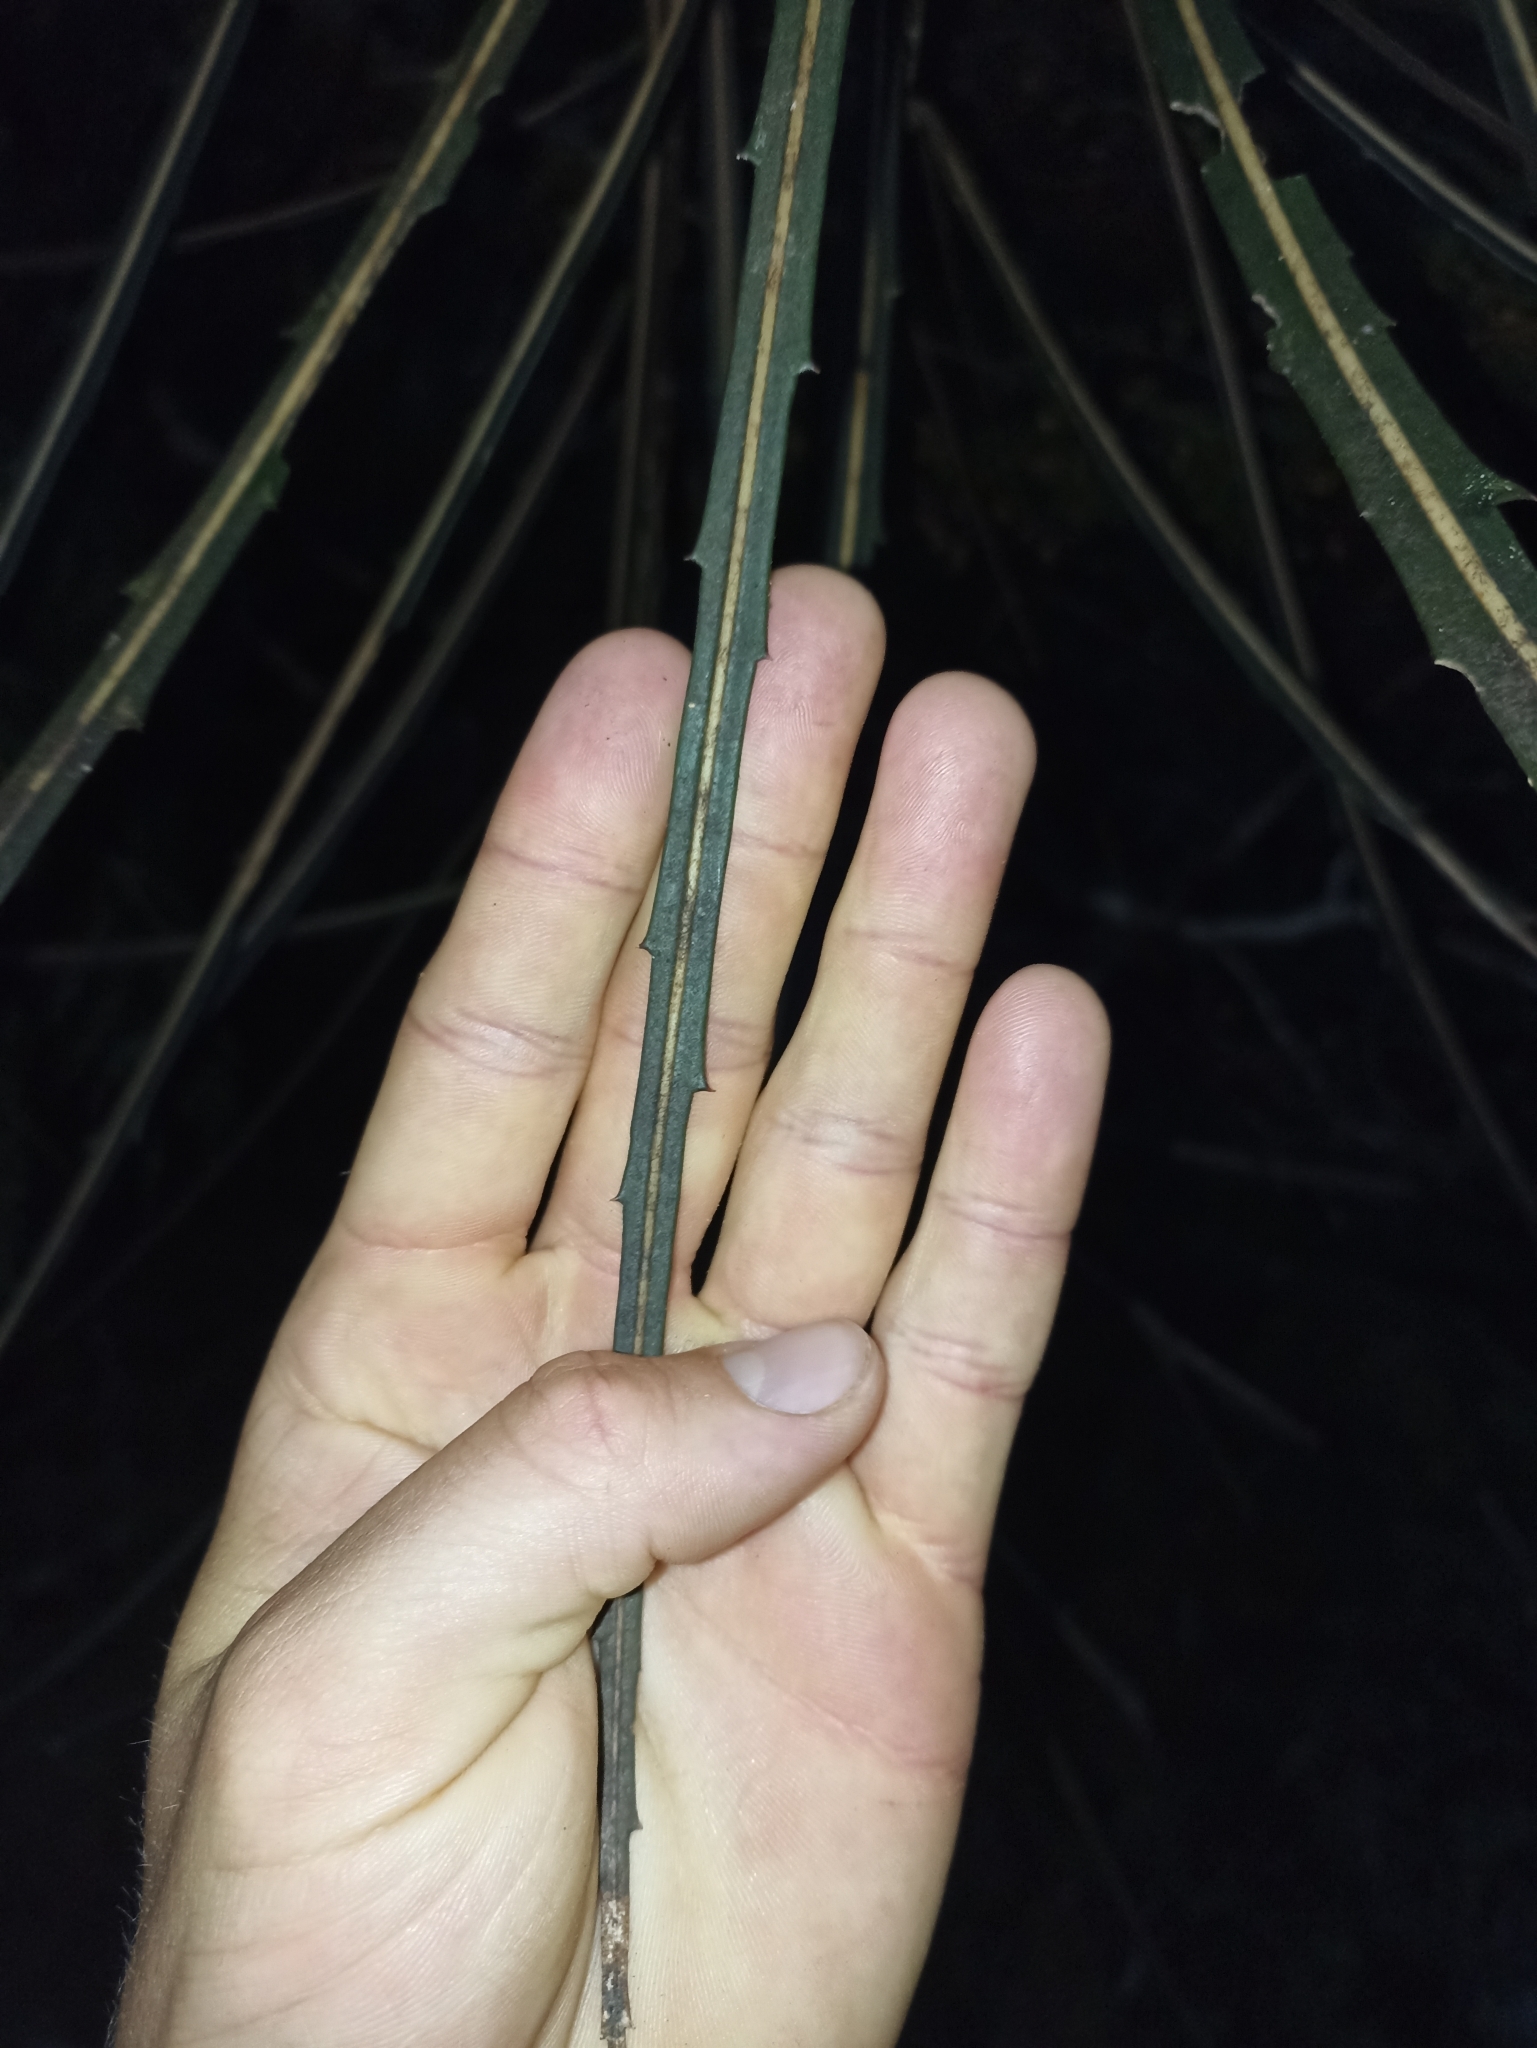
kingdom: Plantae
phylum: Tracheophyta
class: Magnoliopsida
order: Apiales
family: Araliaceae
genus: Pseudopanax
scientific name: Pseudopanax crassifolius
